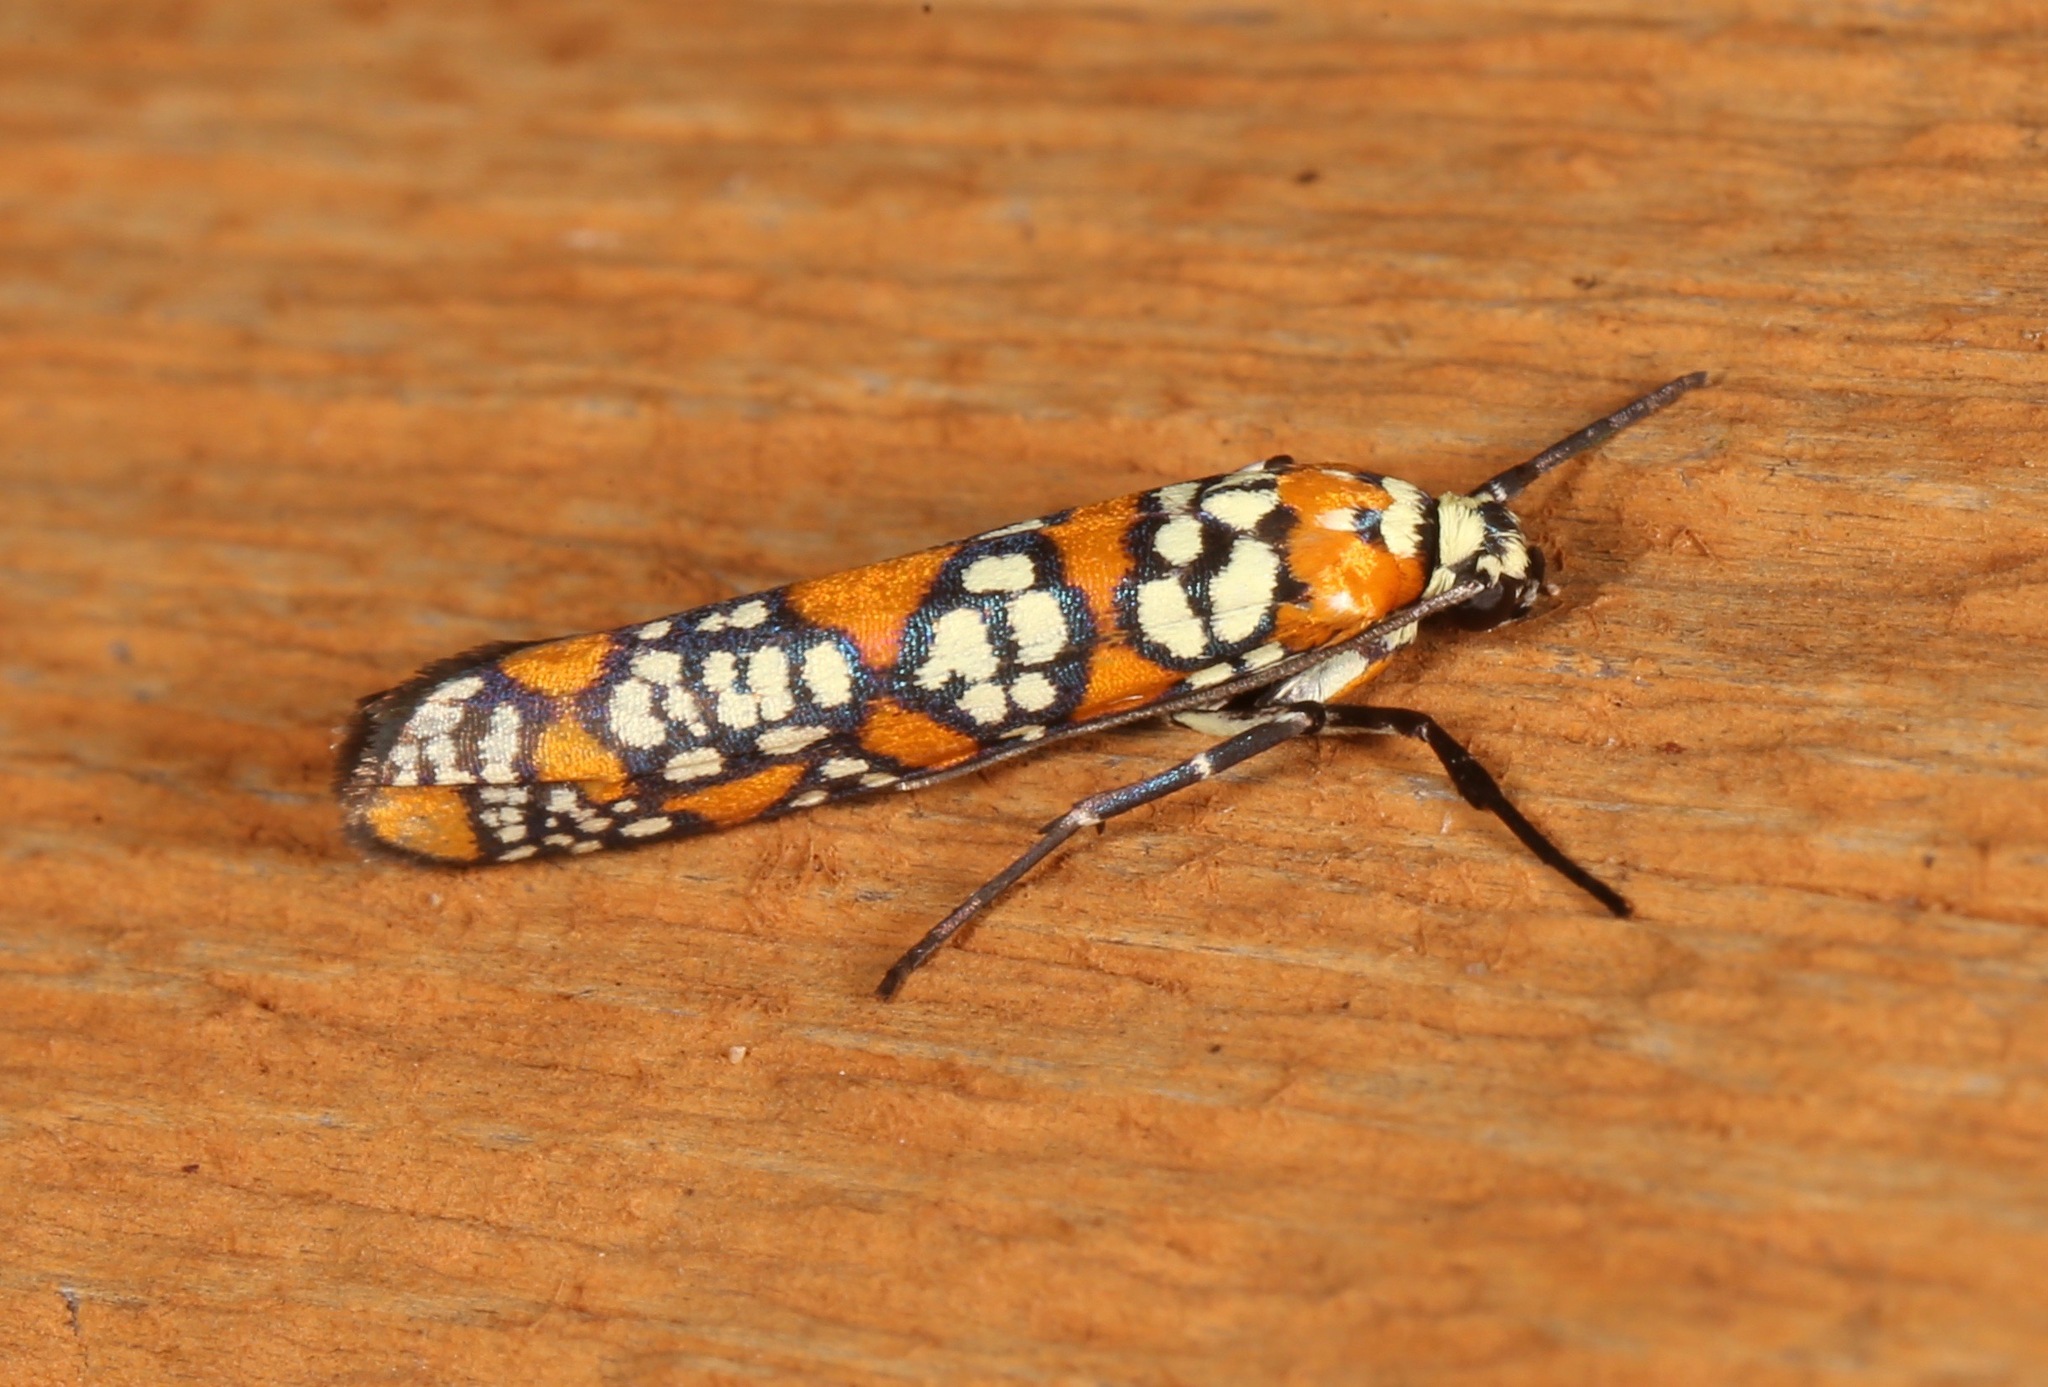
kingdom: Animalia
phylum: Arthropoda
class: Insecta
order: Lepidoptera
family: Attevidae
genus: Atteva
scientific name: Atteva punctella
